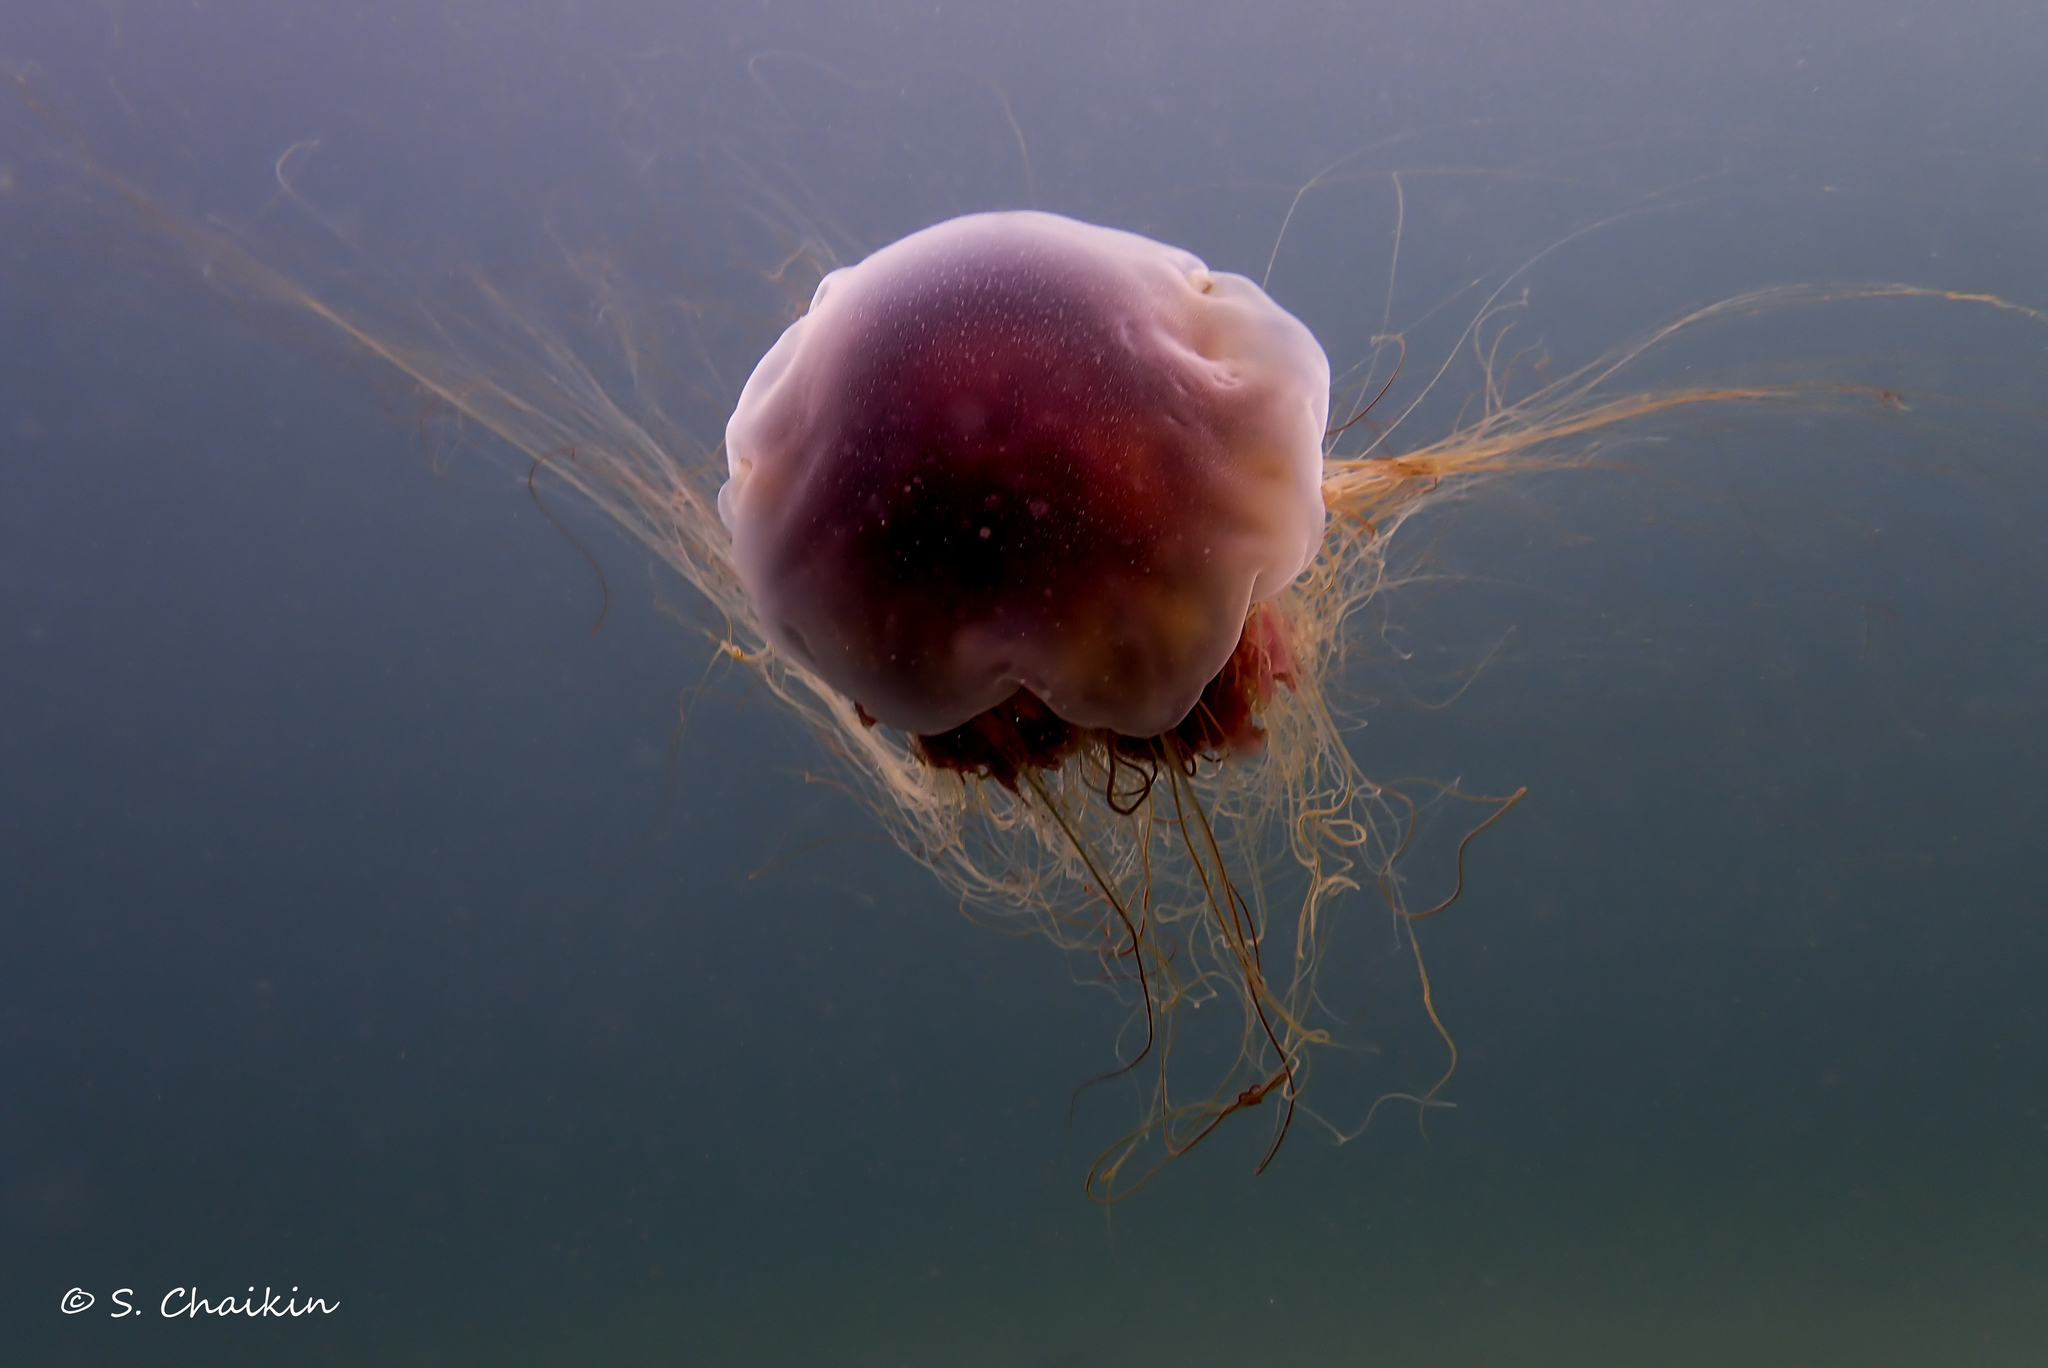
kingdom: Animalia
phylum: Cnidaria
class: Scyphozoa
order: Semaeostomeae
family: Cyaneidae
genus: Cyanea
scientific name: Cyanea
